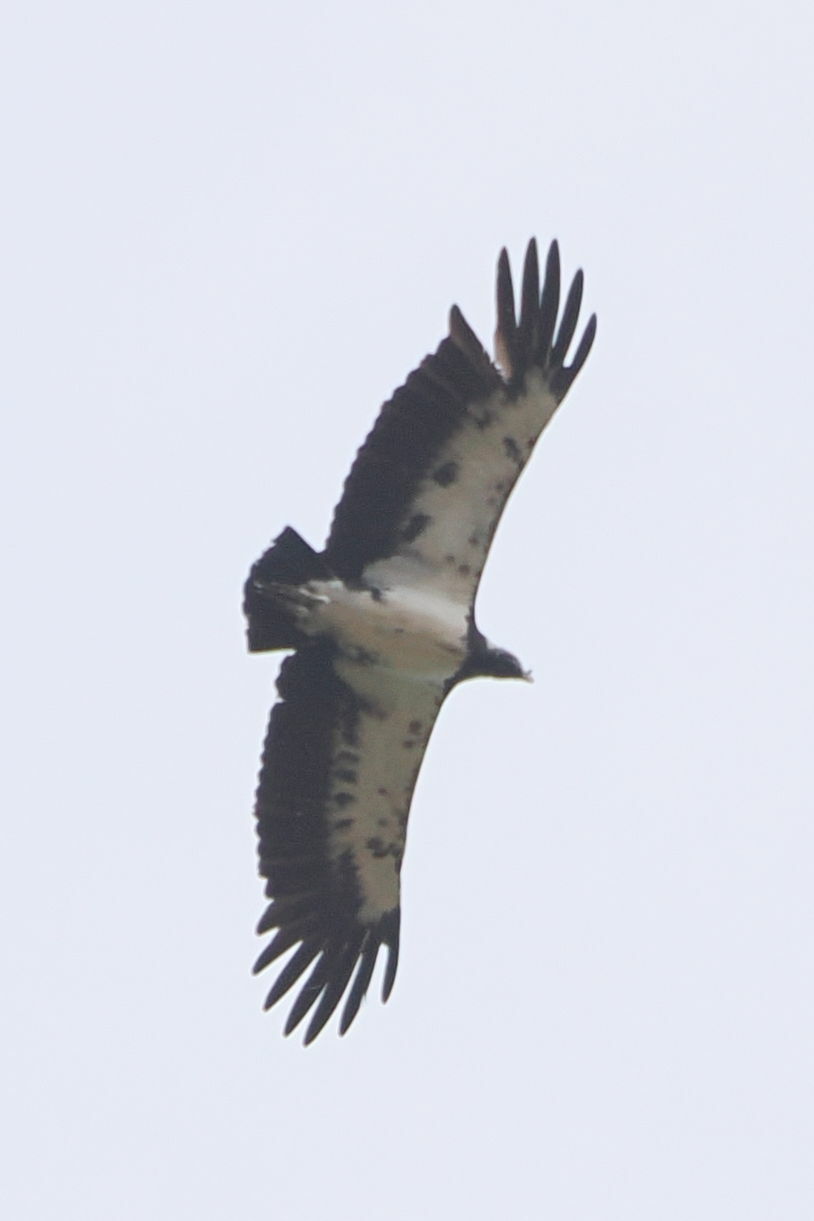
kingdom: Animalia
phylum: Chordata
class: Aves
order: Accipitriformes
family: Cathartidae
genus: Sarcoramphus
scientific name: Sarcoramphus papa
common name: King vulture
